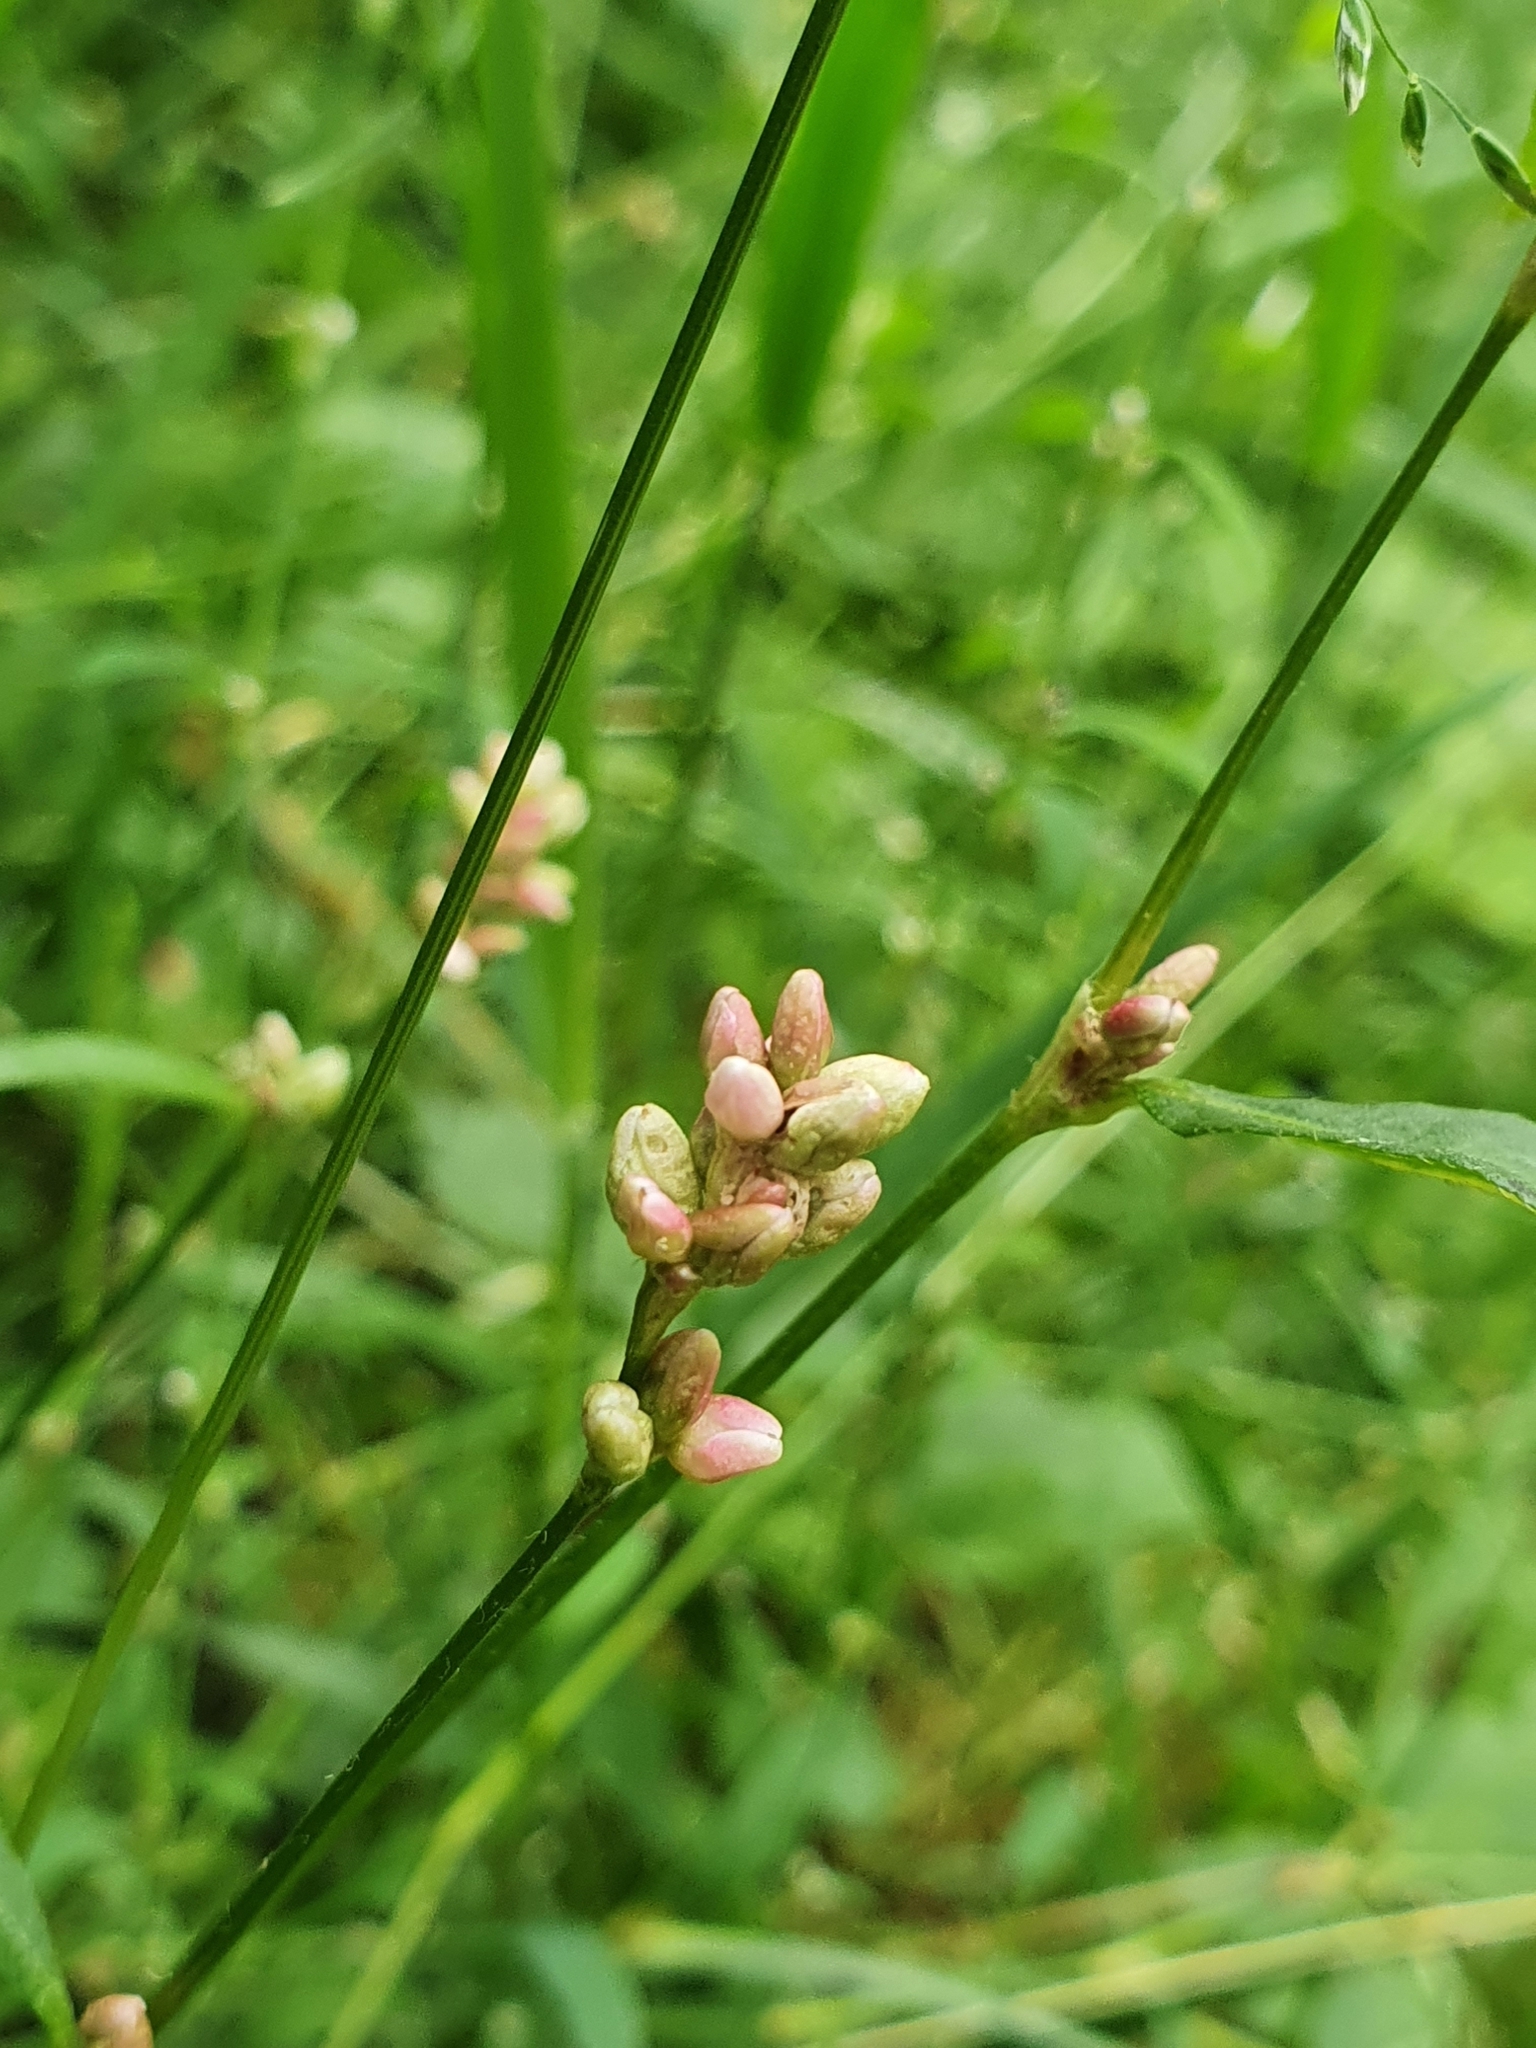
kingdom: Plantae
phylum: Tracheophyta
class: Magnoliopsida
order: Caryophyllales
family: Polygonaceae
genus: Persicaria
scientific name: Persicaria maculosa
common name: Redshank
